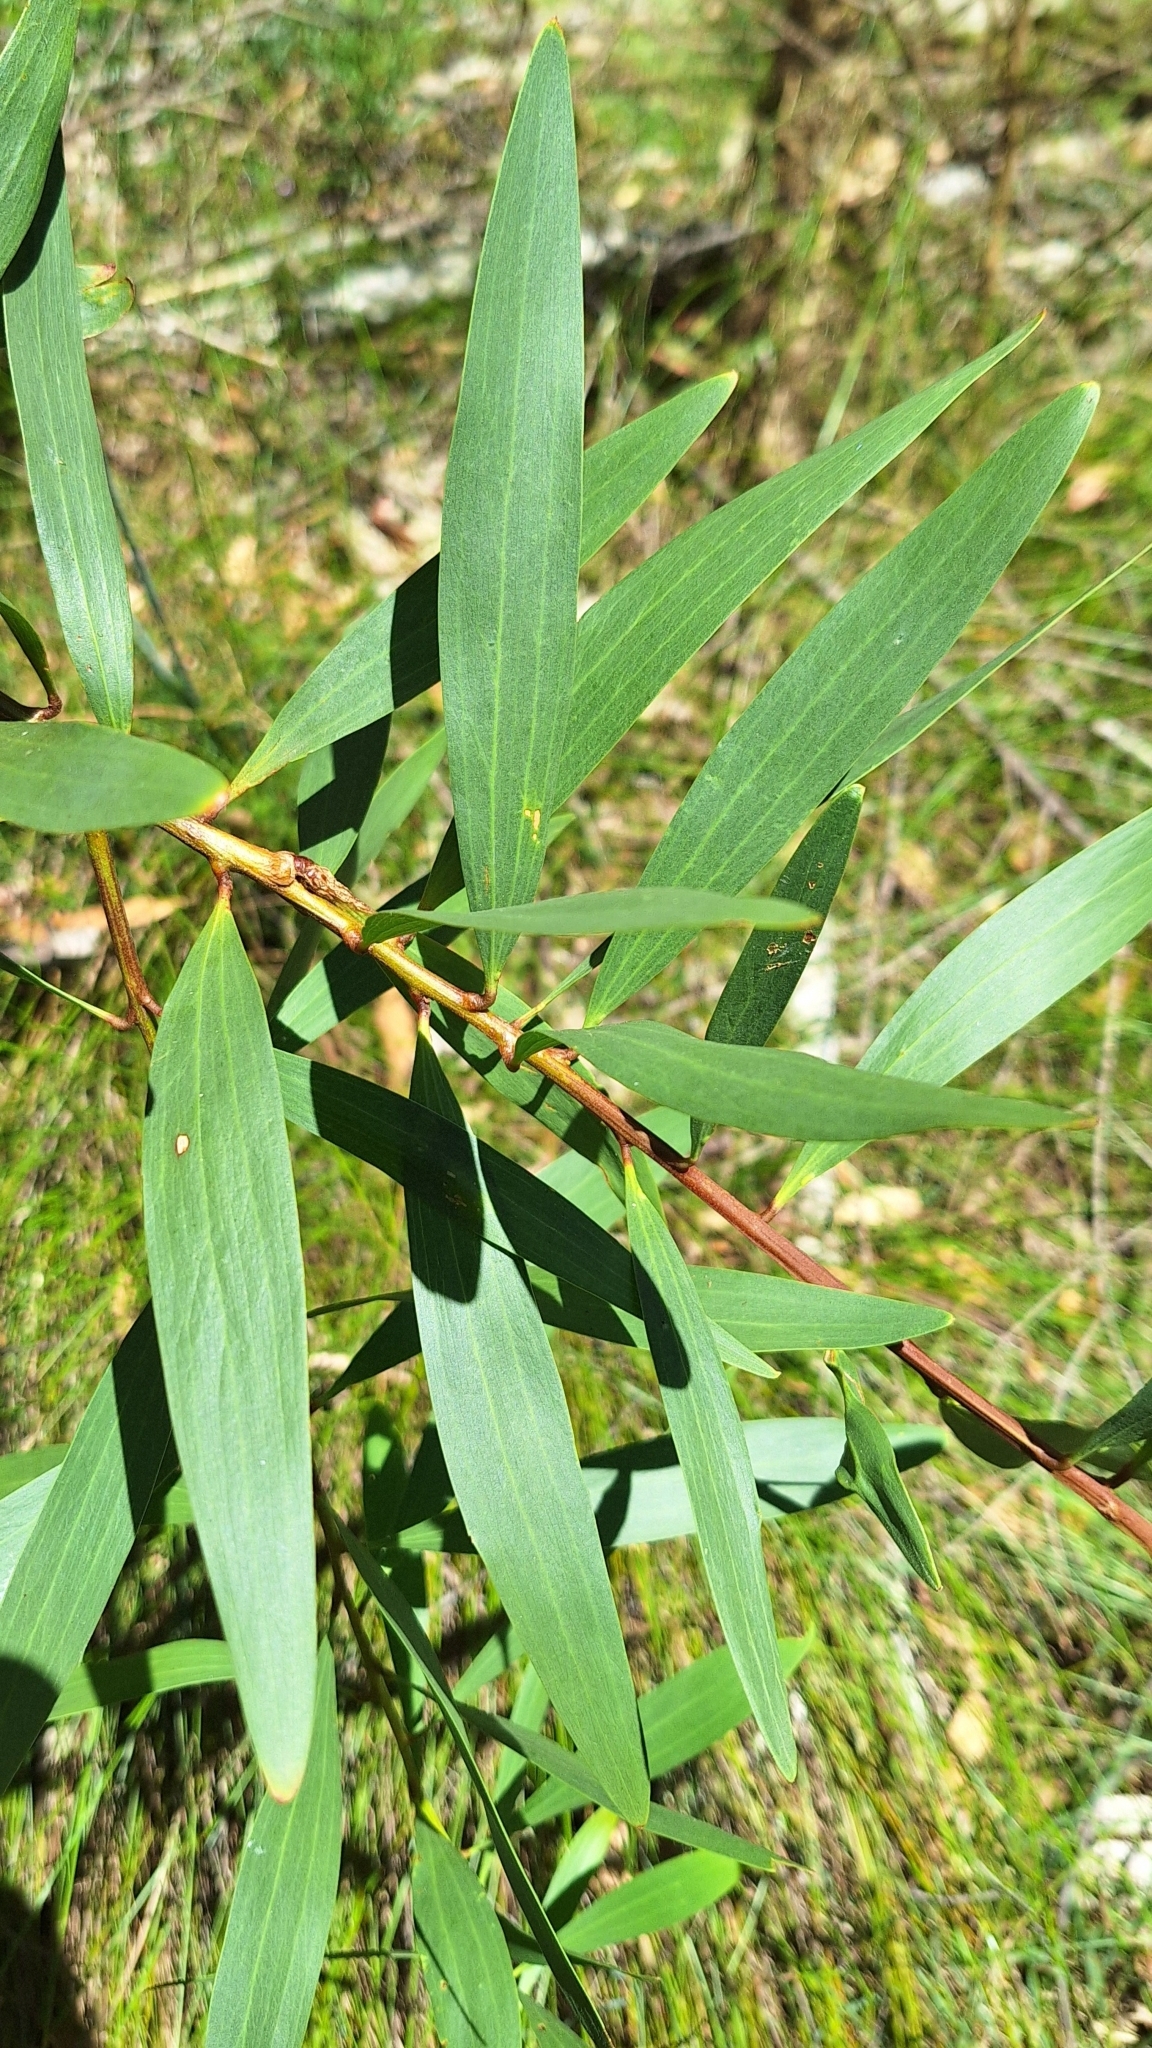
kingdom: Plantae
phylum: Tracheophyta
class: Magnoliopsida
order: Fabales
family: Fabaceae
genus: Acacia
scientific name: Acacia longifolia
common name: Sydney golden wattle
